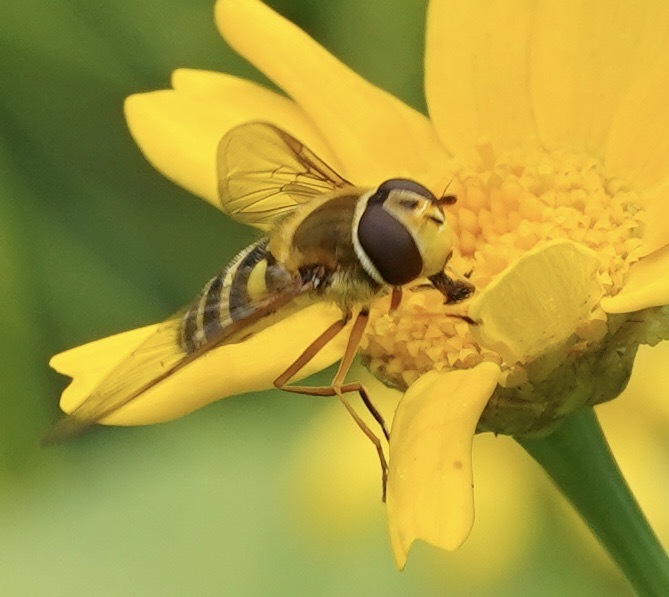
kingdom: Animalia
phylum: Arthropoda
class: Insecta
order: Diptera
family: Syrphidae
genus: Syrphus
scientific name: Syrphus ribesii
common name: Common flower fly
